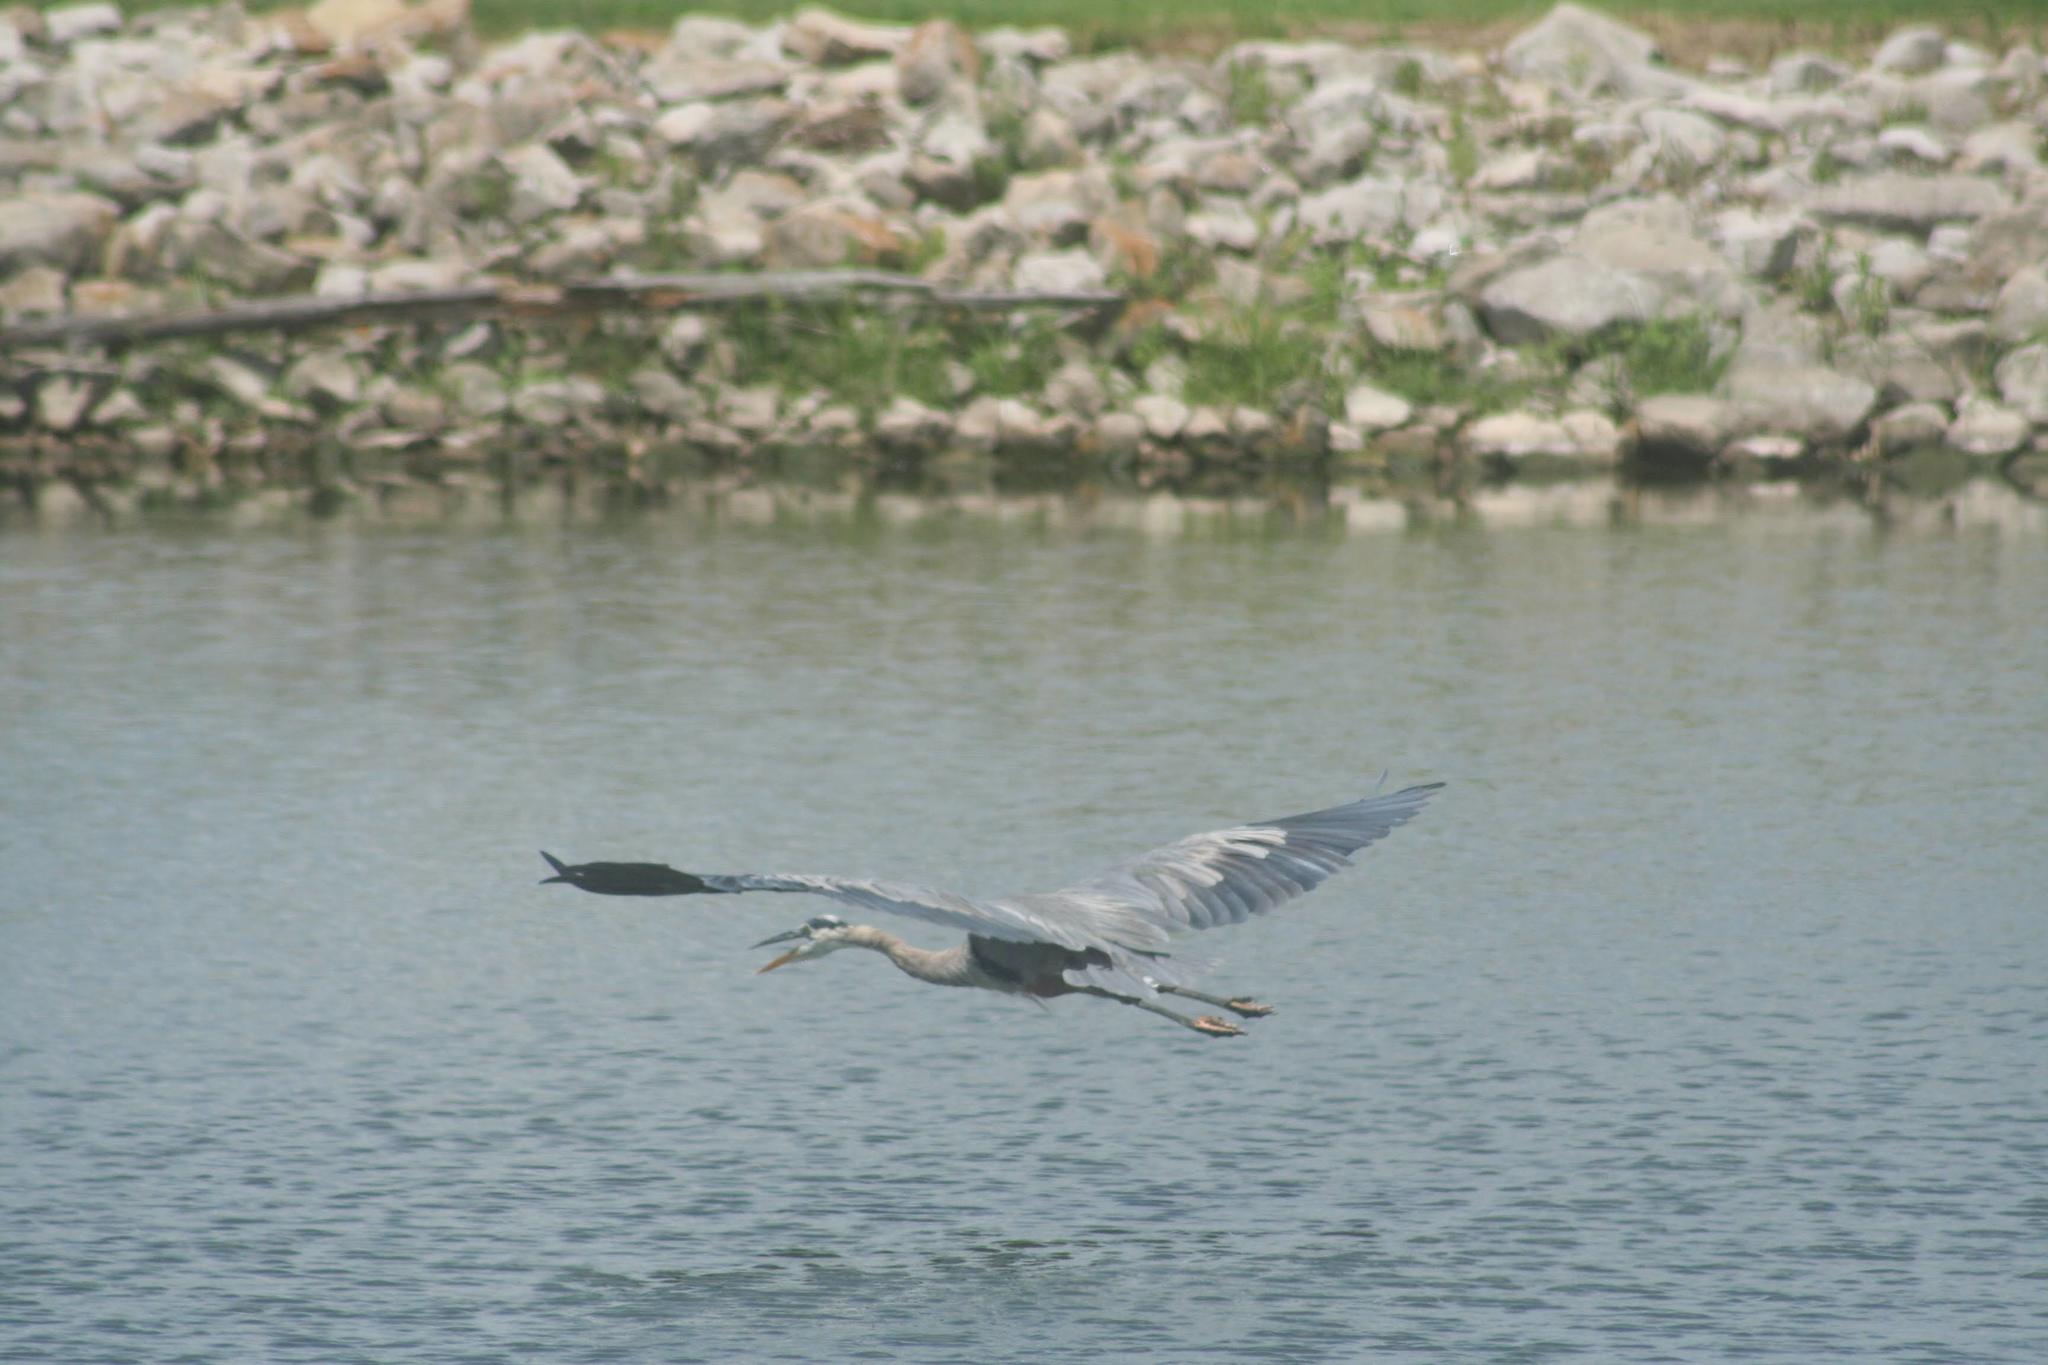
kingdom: Animalia
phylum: Chordata
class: Aves
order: Pelecaniformes
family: Ardeidae
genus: Ardea
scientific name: Ardea herodias
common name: Great blue heron
